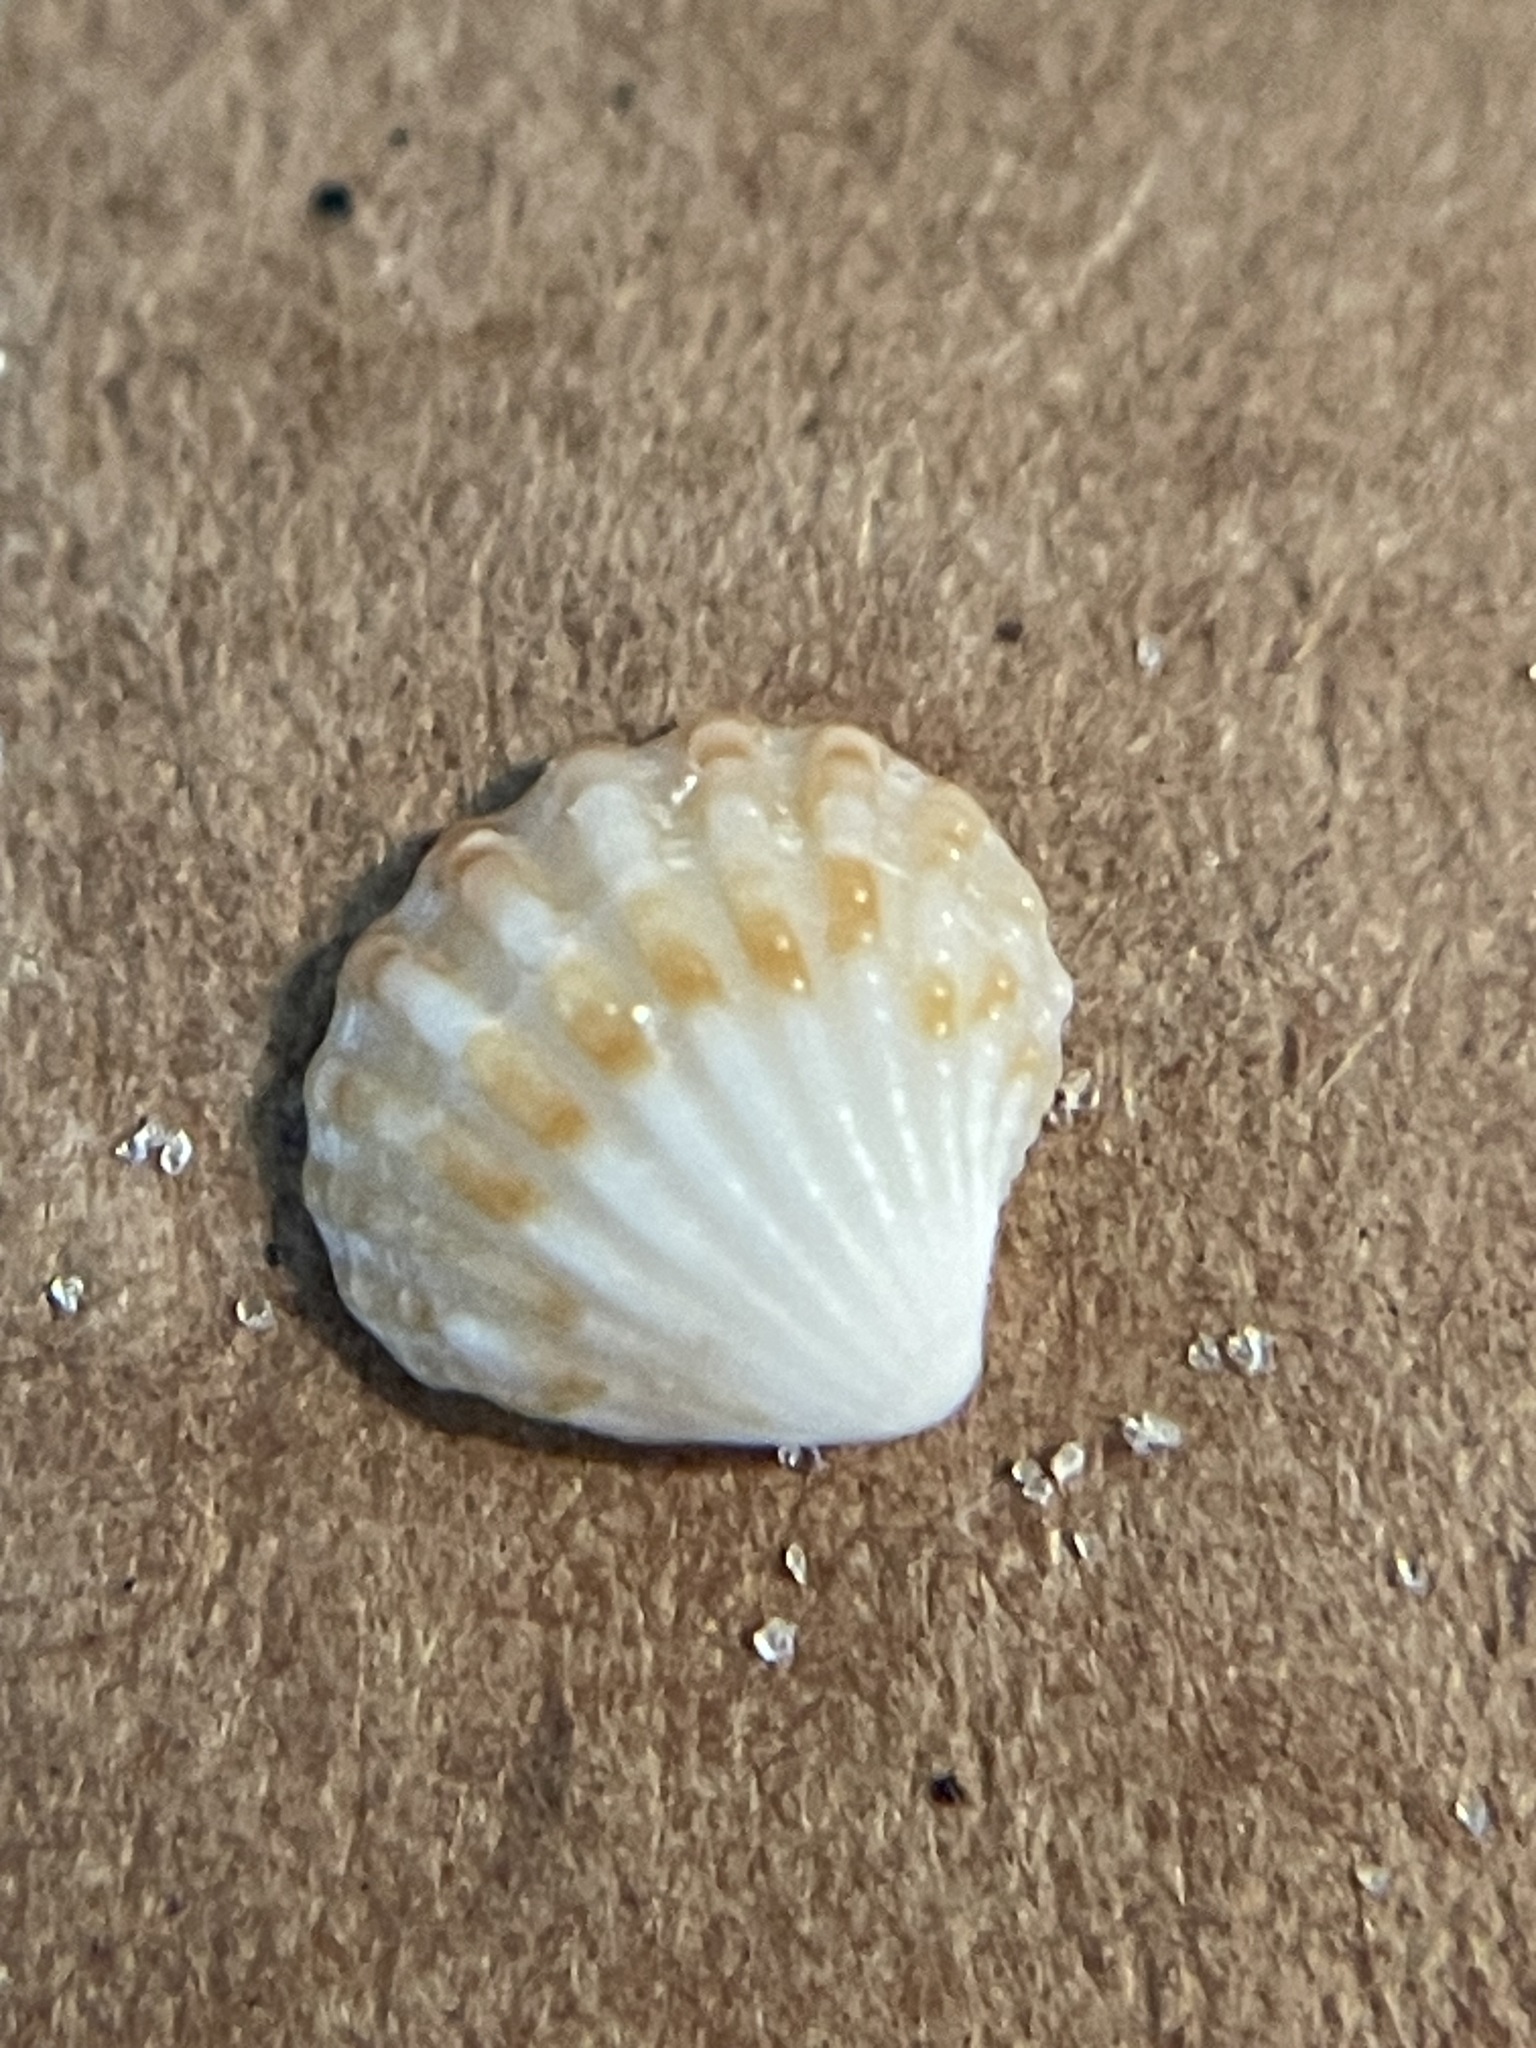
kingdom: Animalia
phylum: Mollusca
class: Bivalvia
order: Carditida
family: Carditidae
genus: Pleuromeris
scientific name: Pleuromeris tridentata
